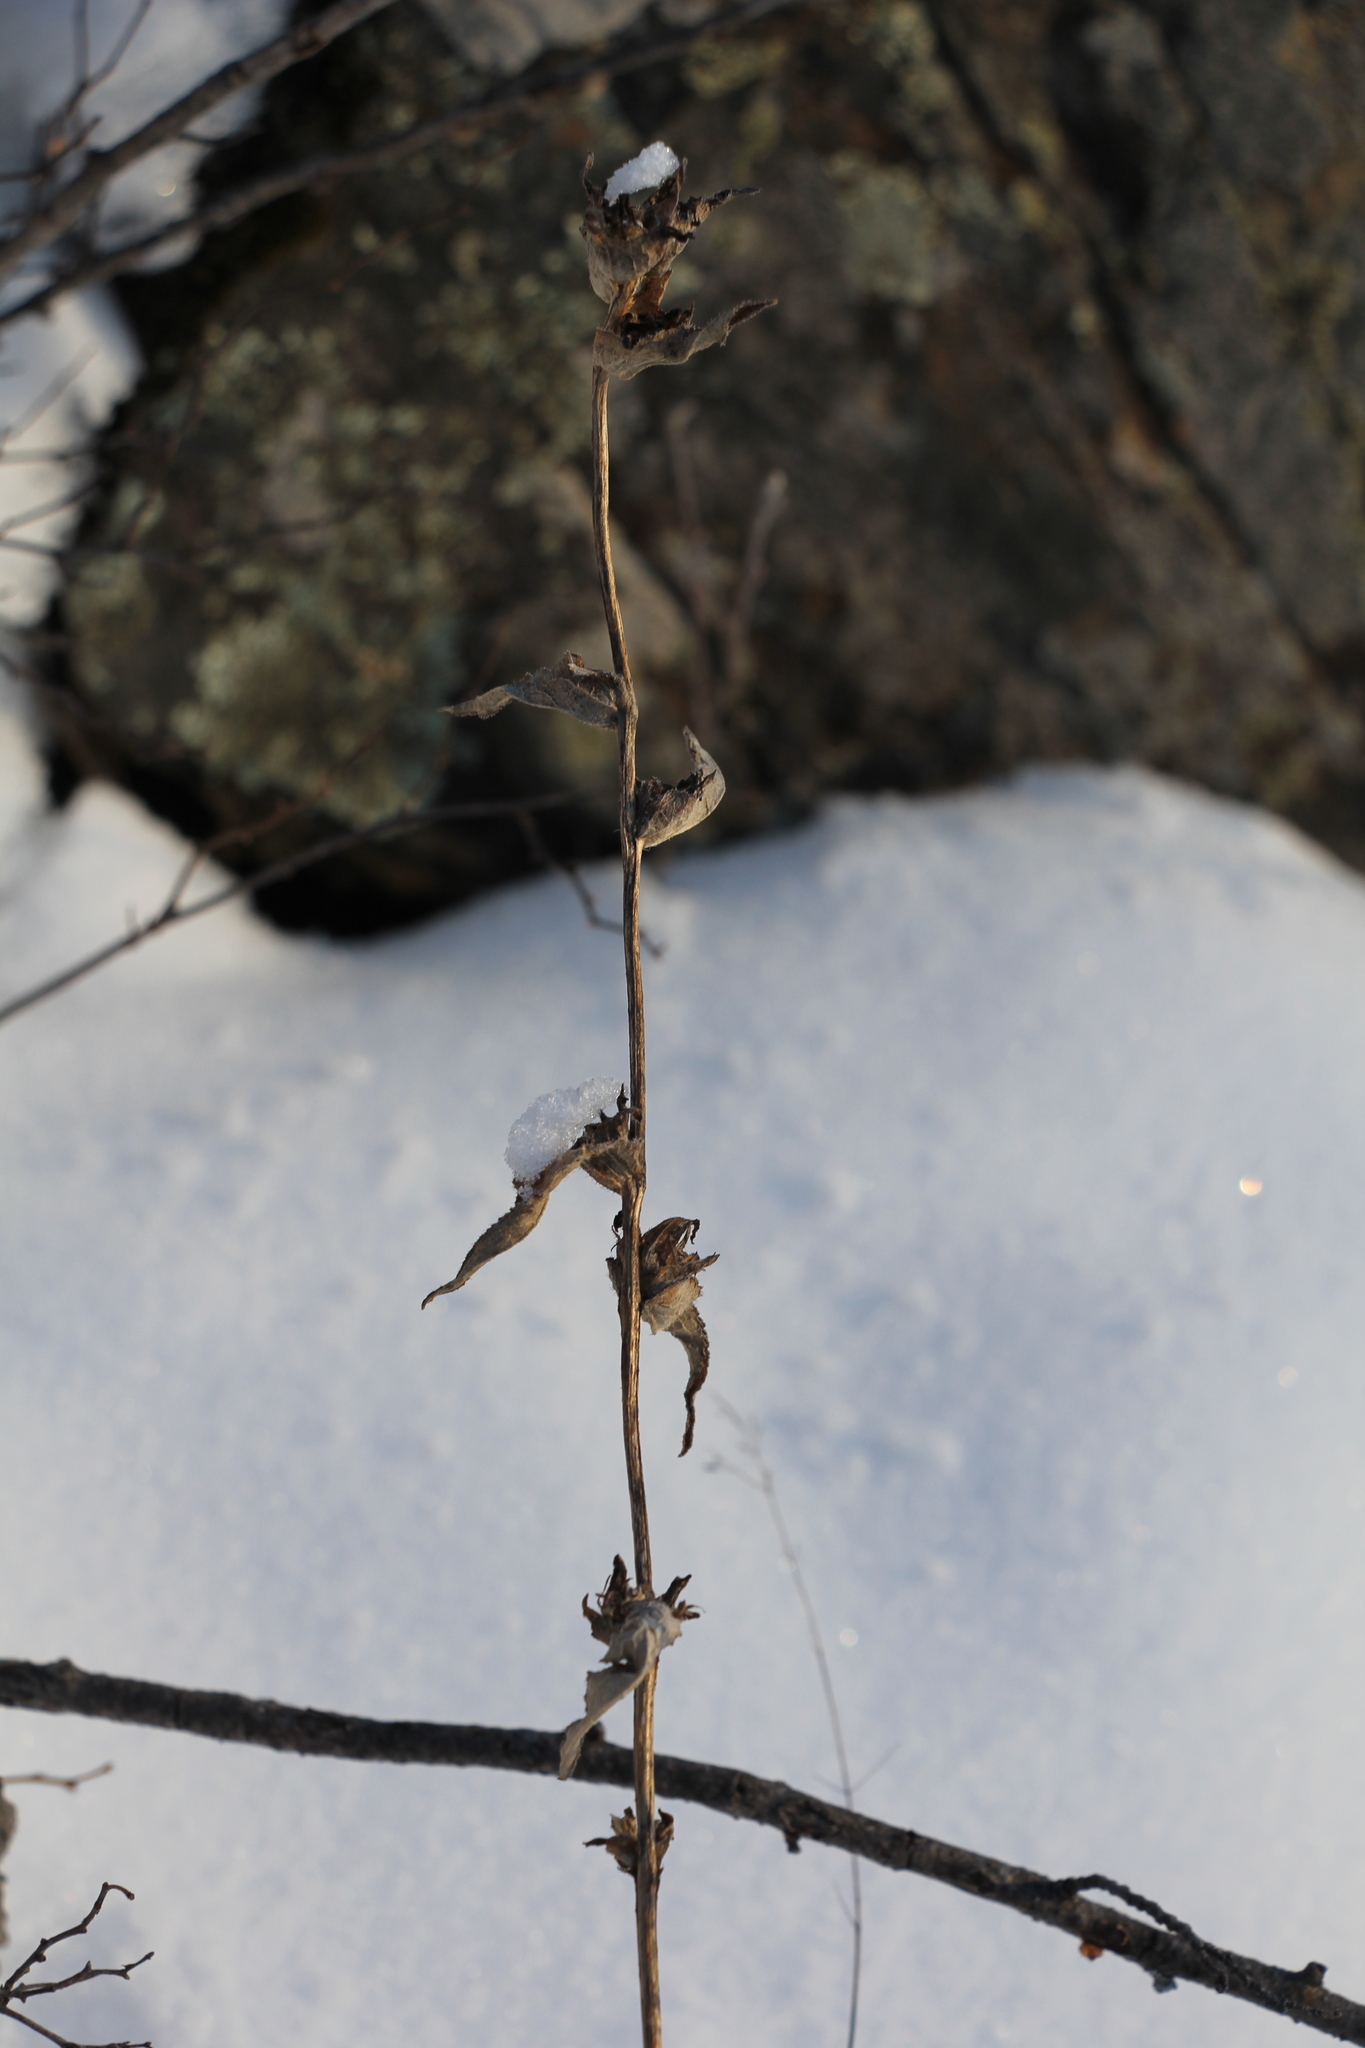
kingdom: Plantae
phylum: Tracheophyta
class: Magnoliopsida
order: Asterales
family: Campanulaceae
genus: Campanula
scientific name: Campanula glomerata
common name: Clustered bellflower
